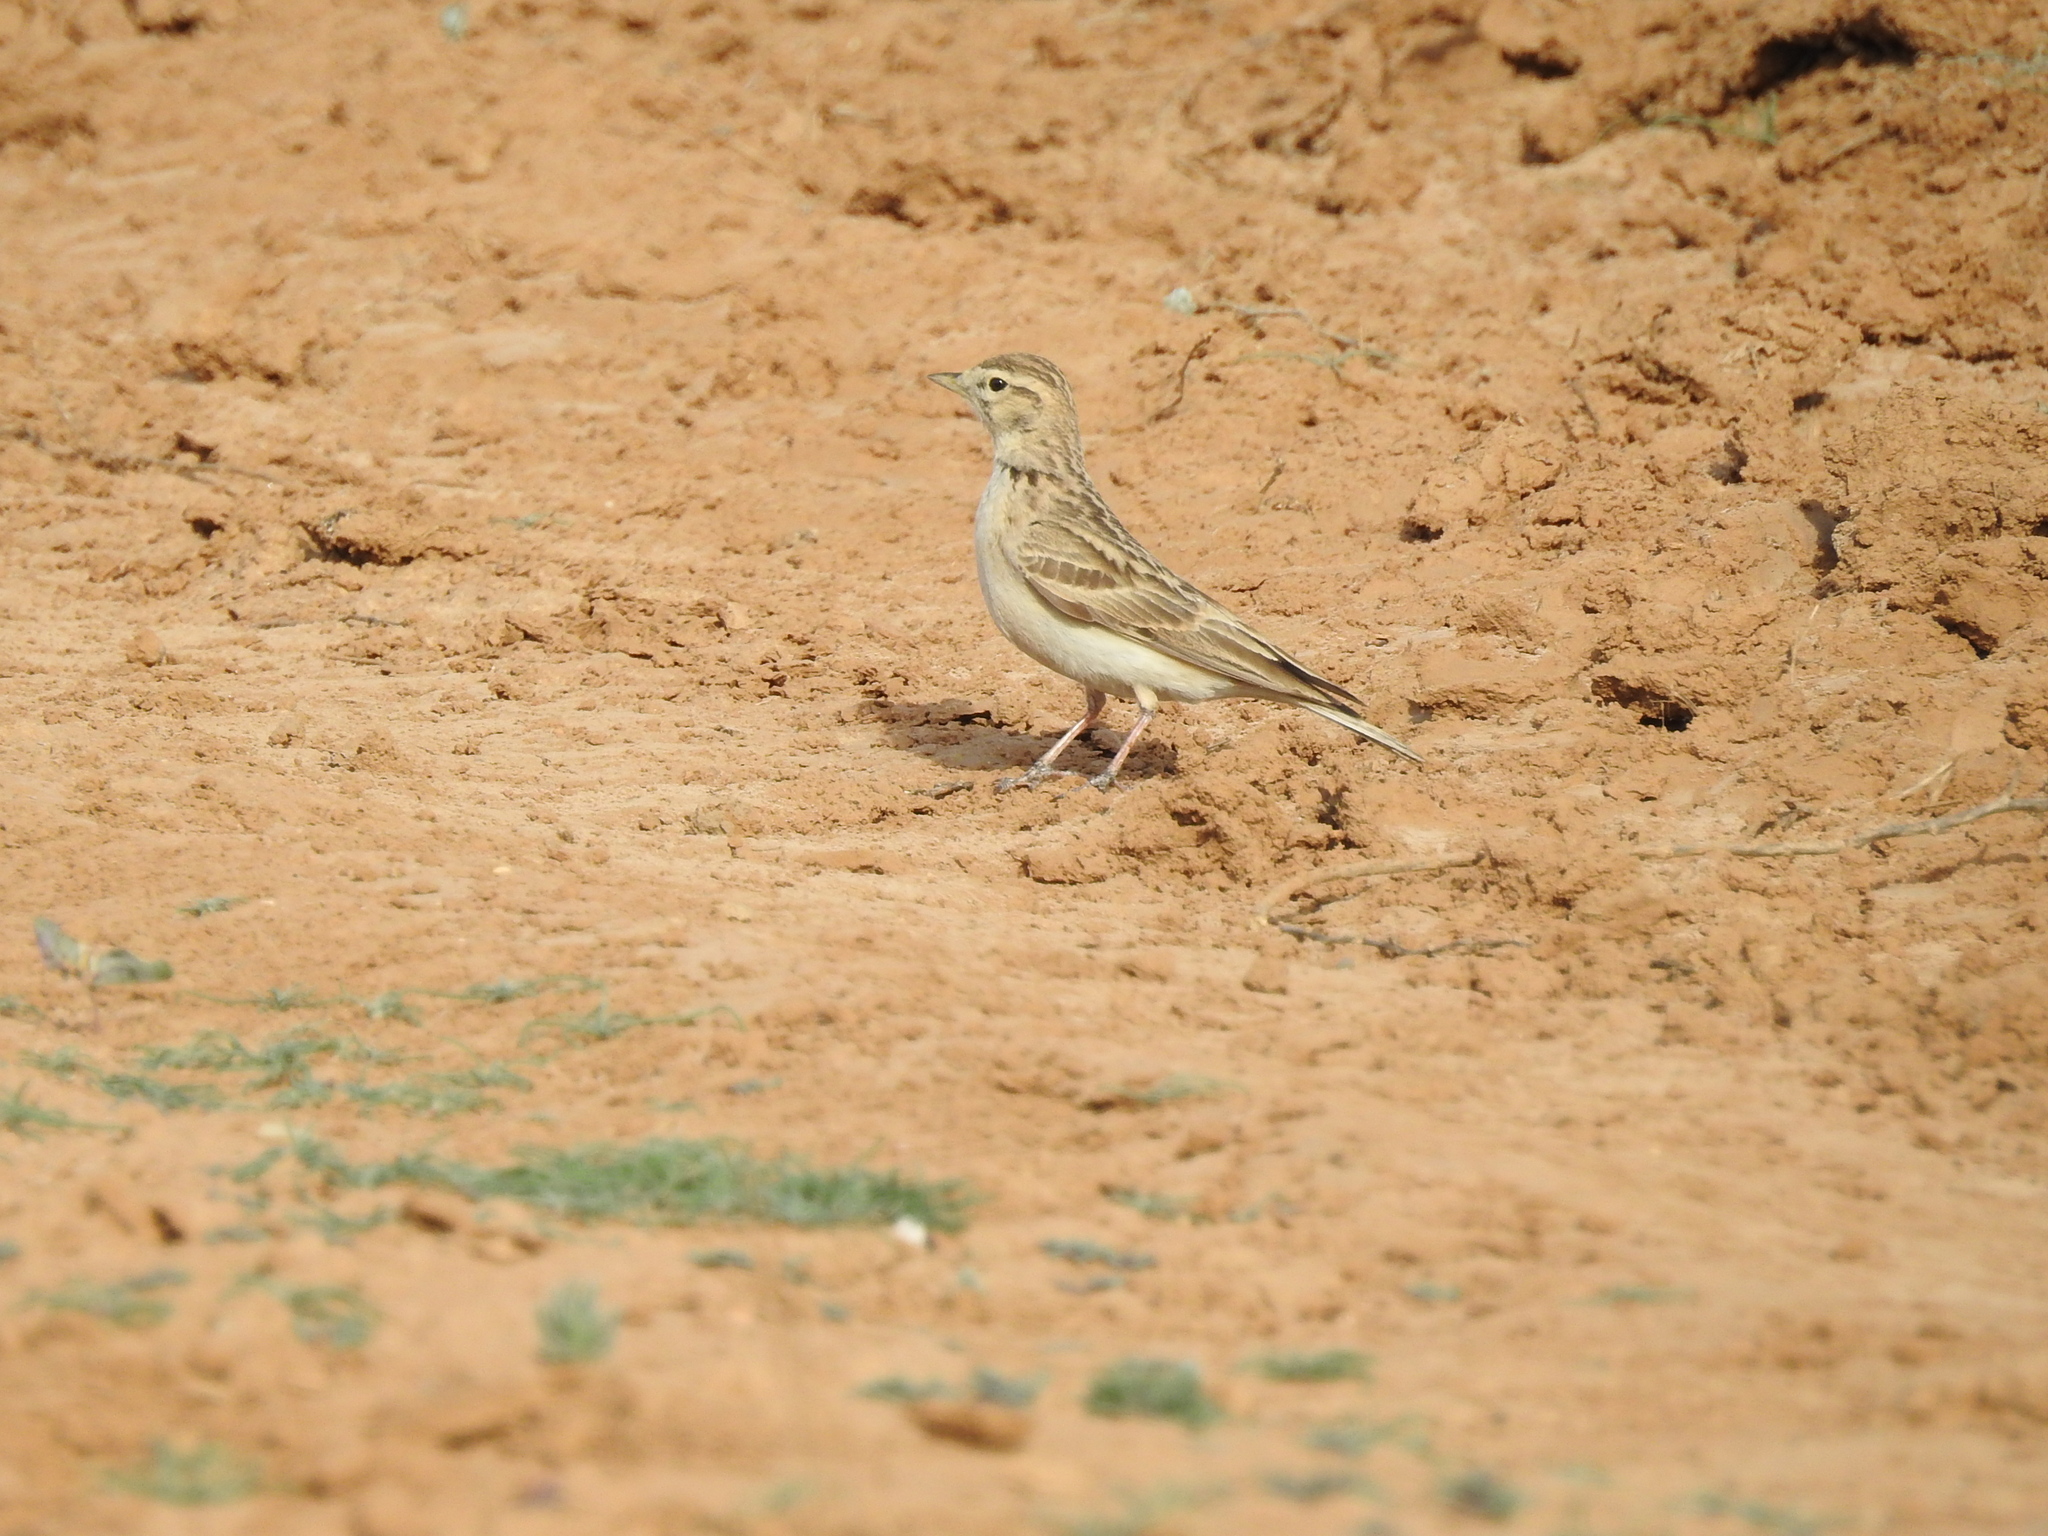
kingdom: Animalia
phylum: Chordata
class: Aves
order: Passeriformes
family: Alaudidae
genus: Calandrella
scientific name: Calandrella brachydactyla
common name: Greater short-toed lark
